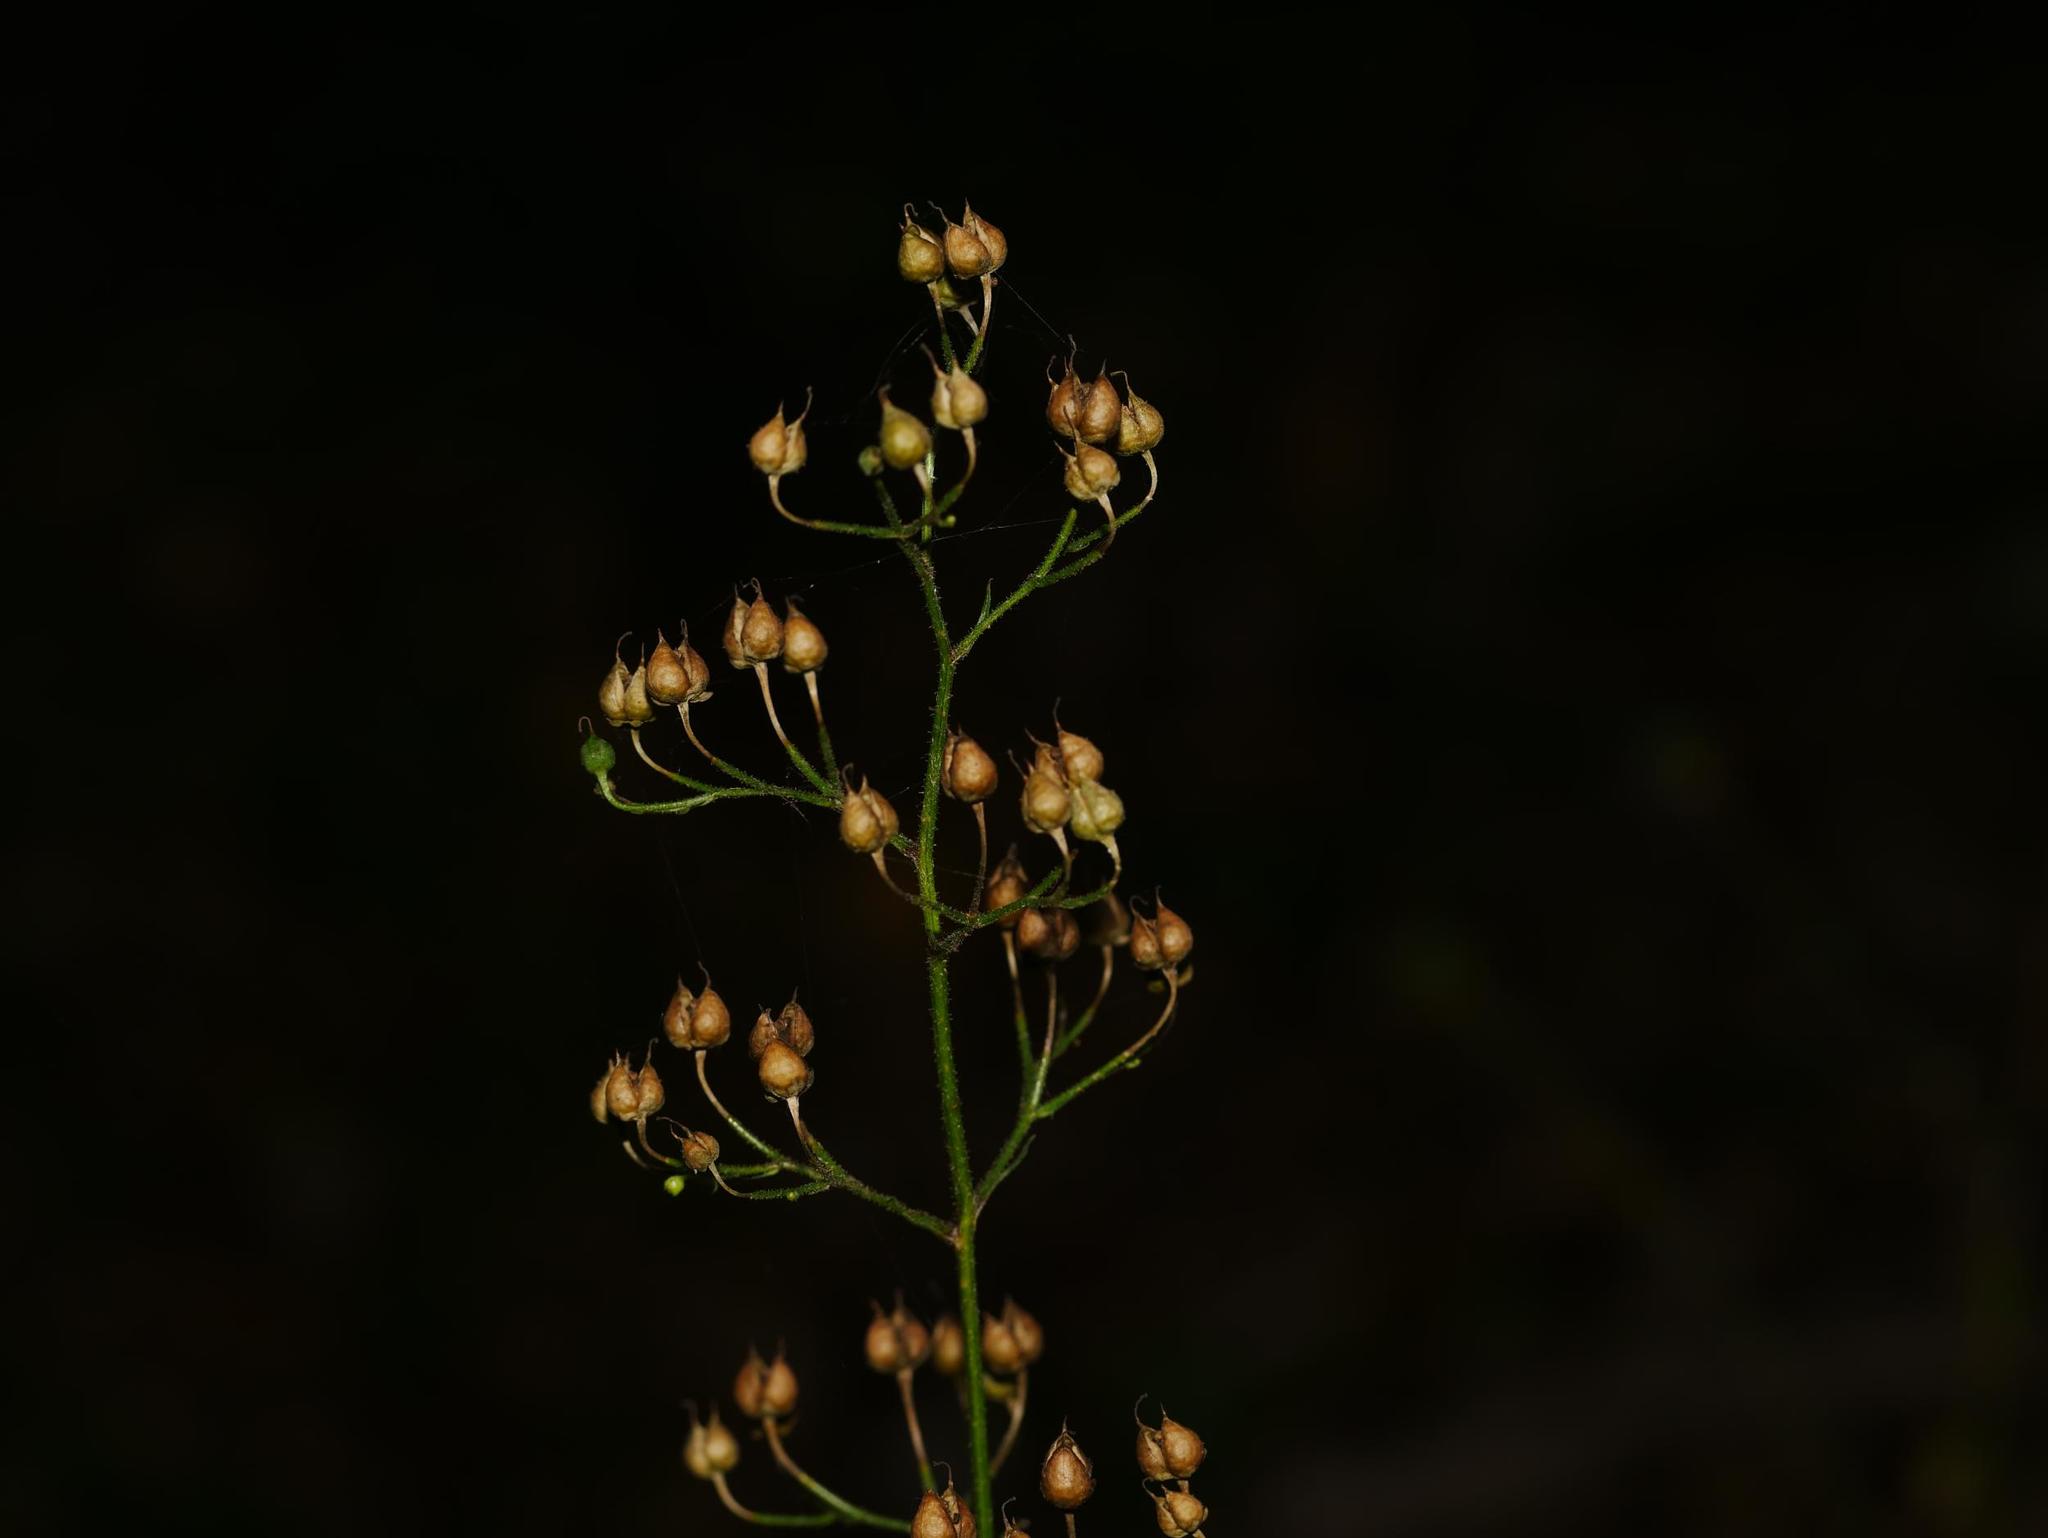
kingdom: Plantae
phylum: Tracheophyta
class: Magnoliopsida
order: Lamiales
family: Scrophulariaceae
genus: Scrophularia
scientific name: Scrophularia nodosa
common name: Common figwort
